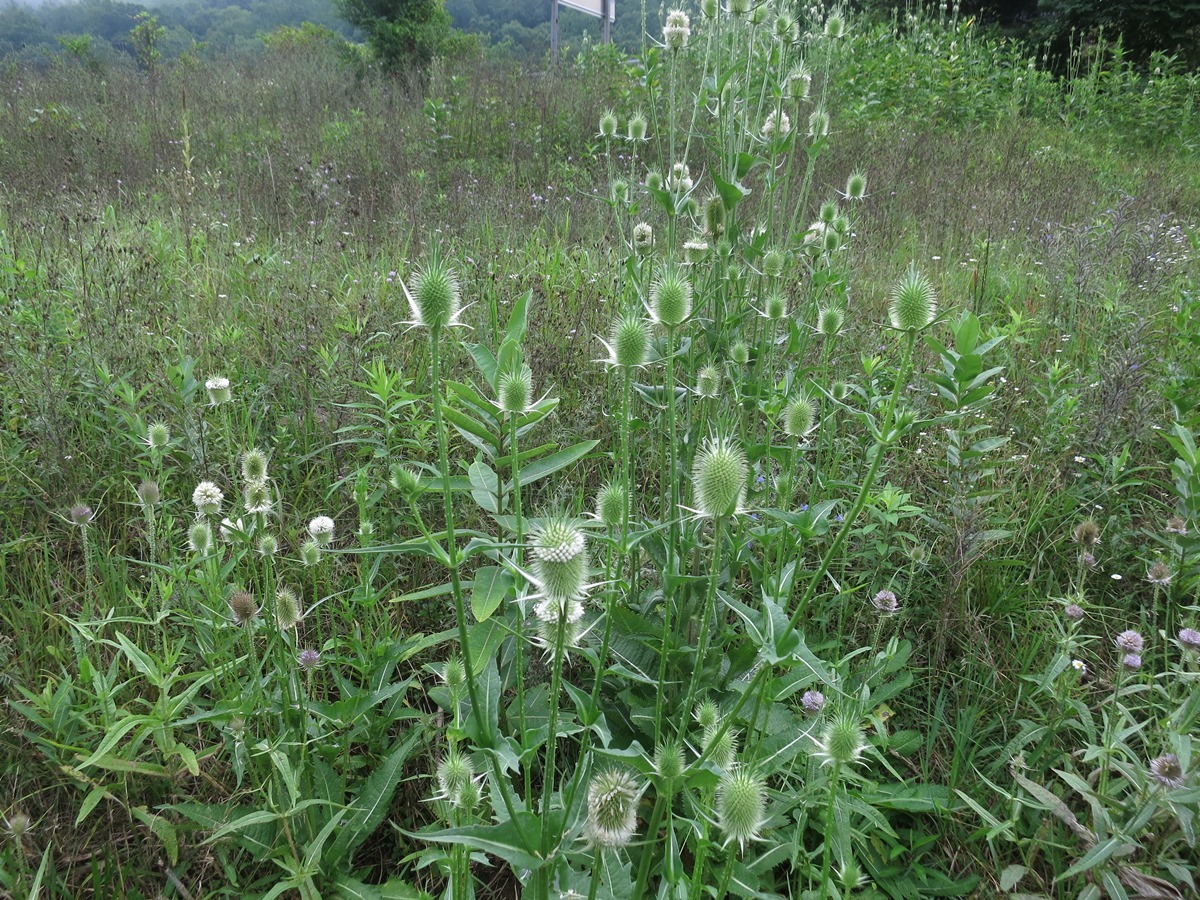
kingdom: Plantae
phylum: Tracheophyta
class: Magnoliopsida
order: Dipsacales
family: Caprifoliaceae
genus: Dipsacus
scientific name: Dipsacus fullonum
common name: Teasel
